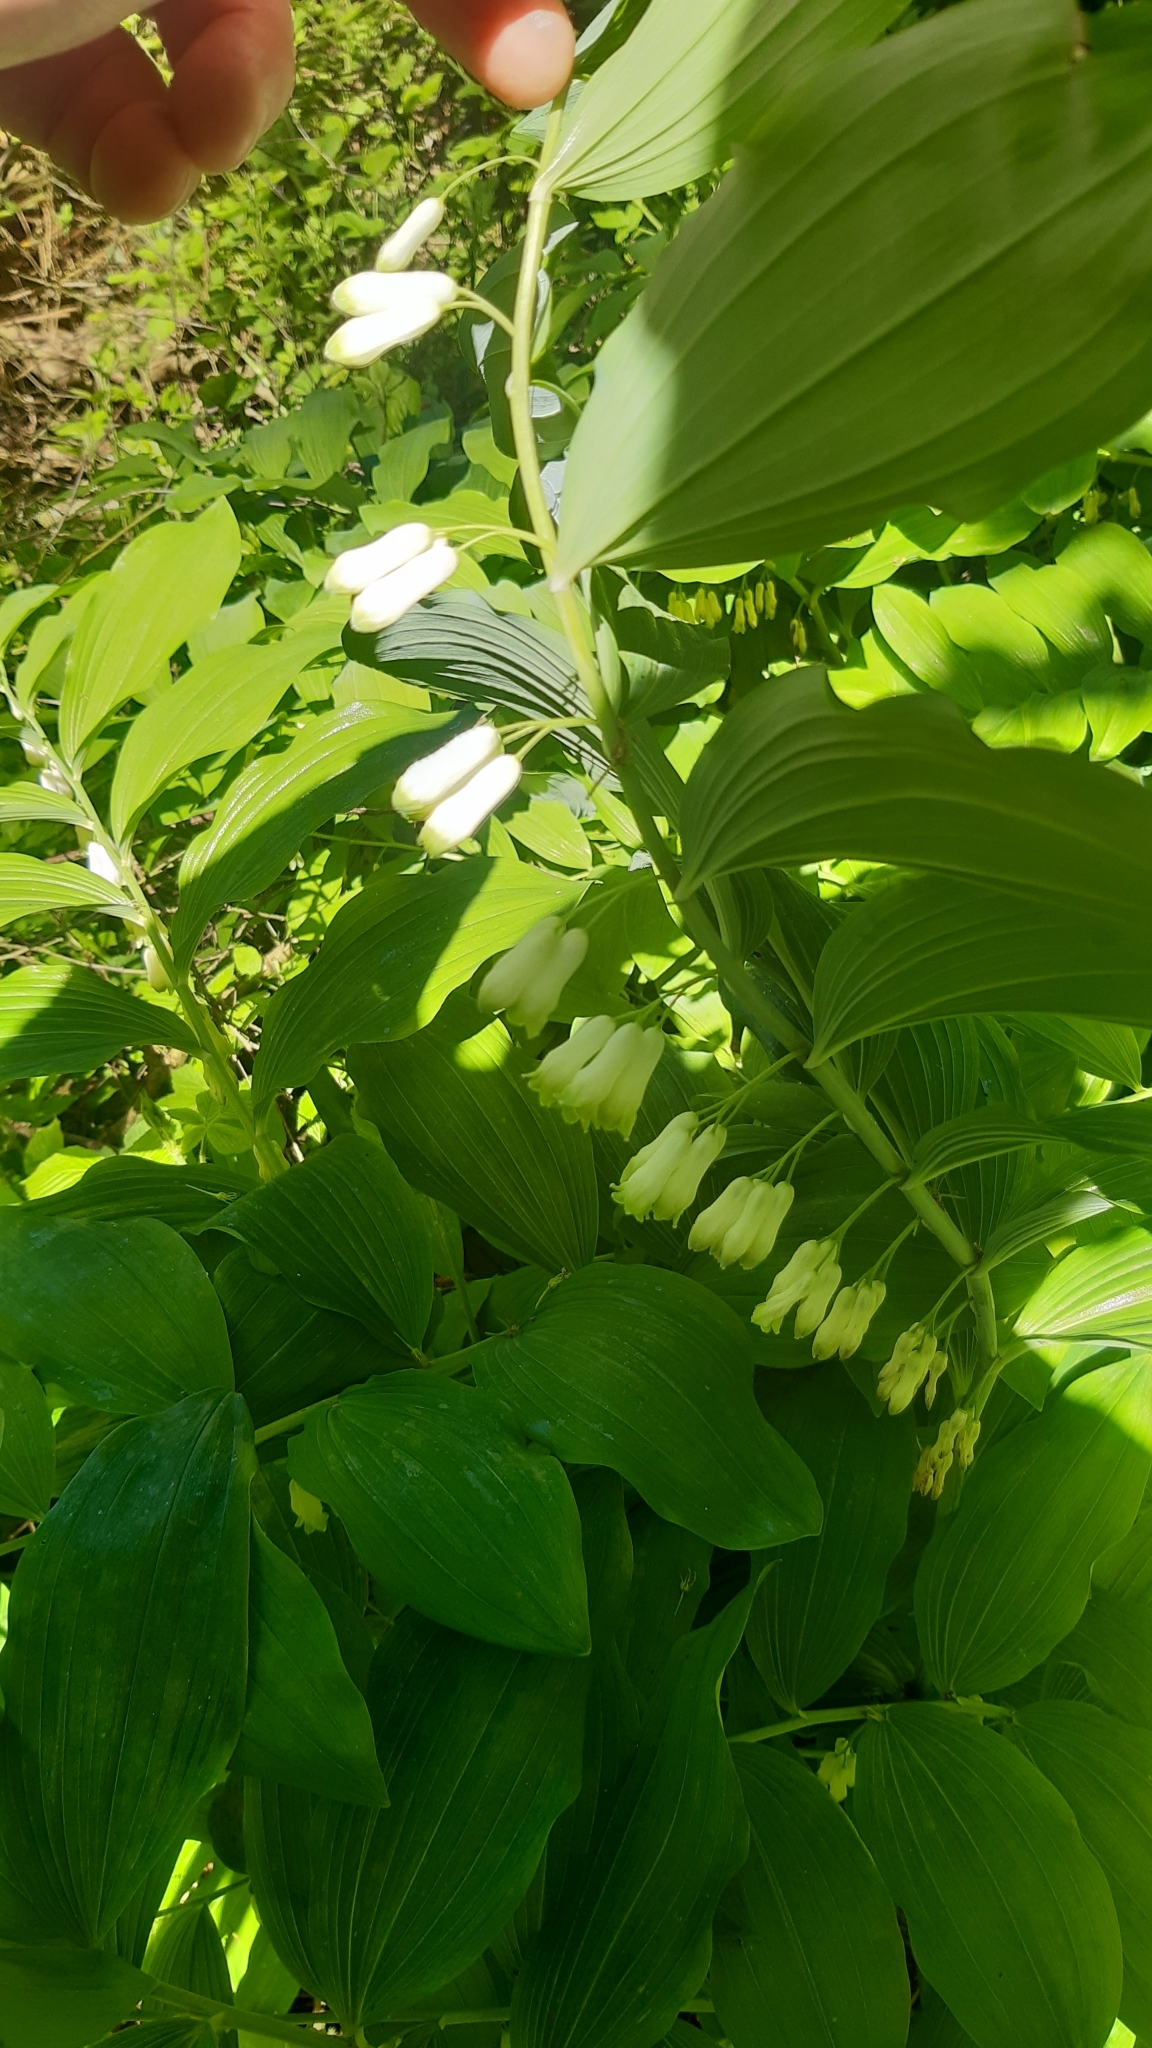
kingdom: Plantae
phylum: Tracheophyta
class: Liliopsida
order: Asparagales
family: Asparagaceae
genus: Polygonatum
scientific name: Polygonatum hybridum
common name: Garden solomon's-seal
